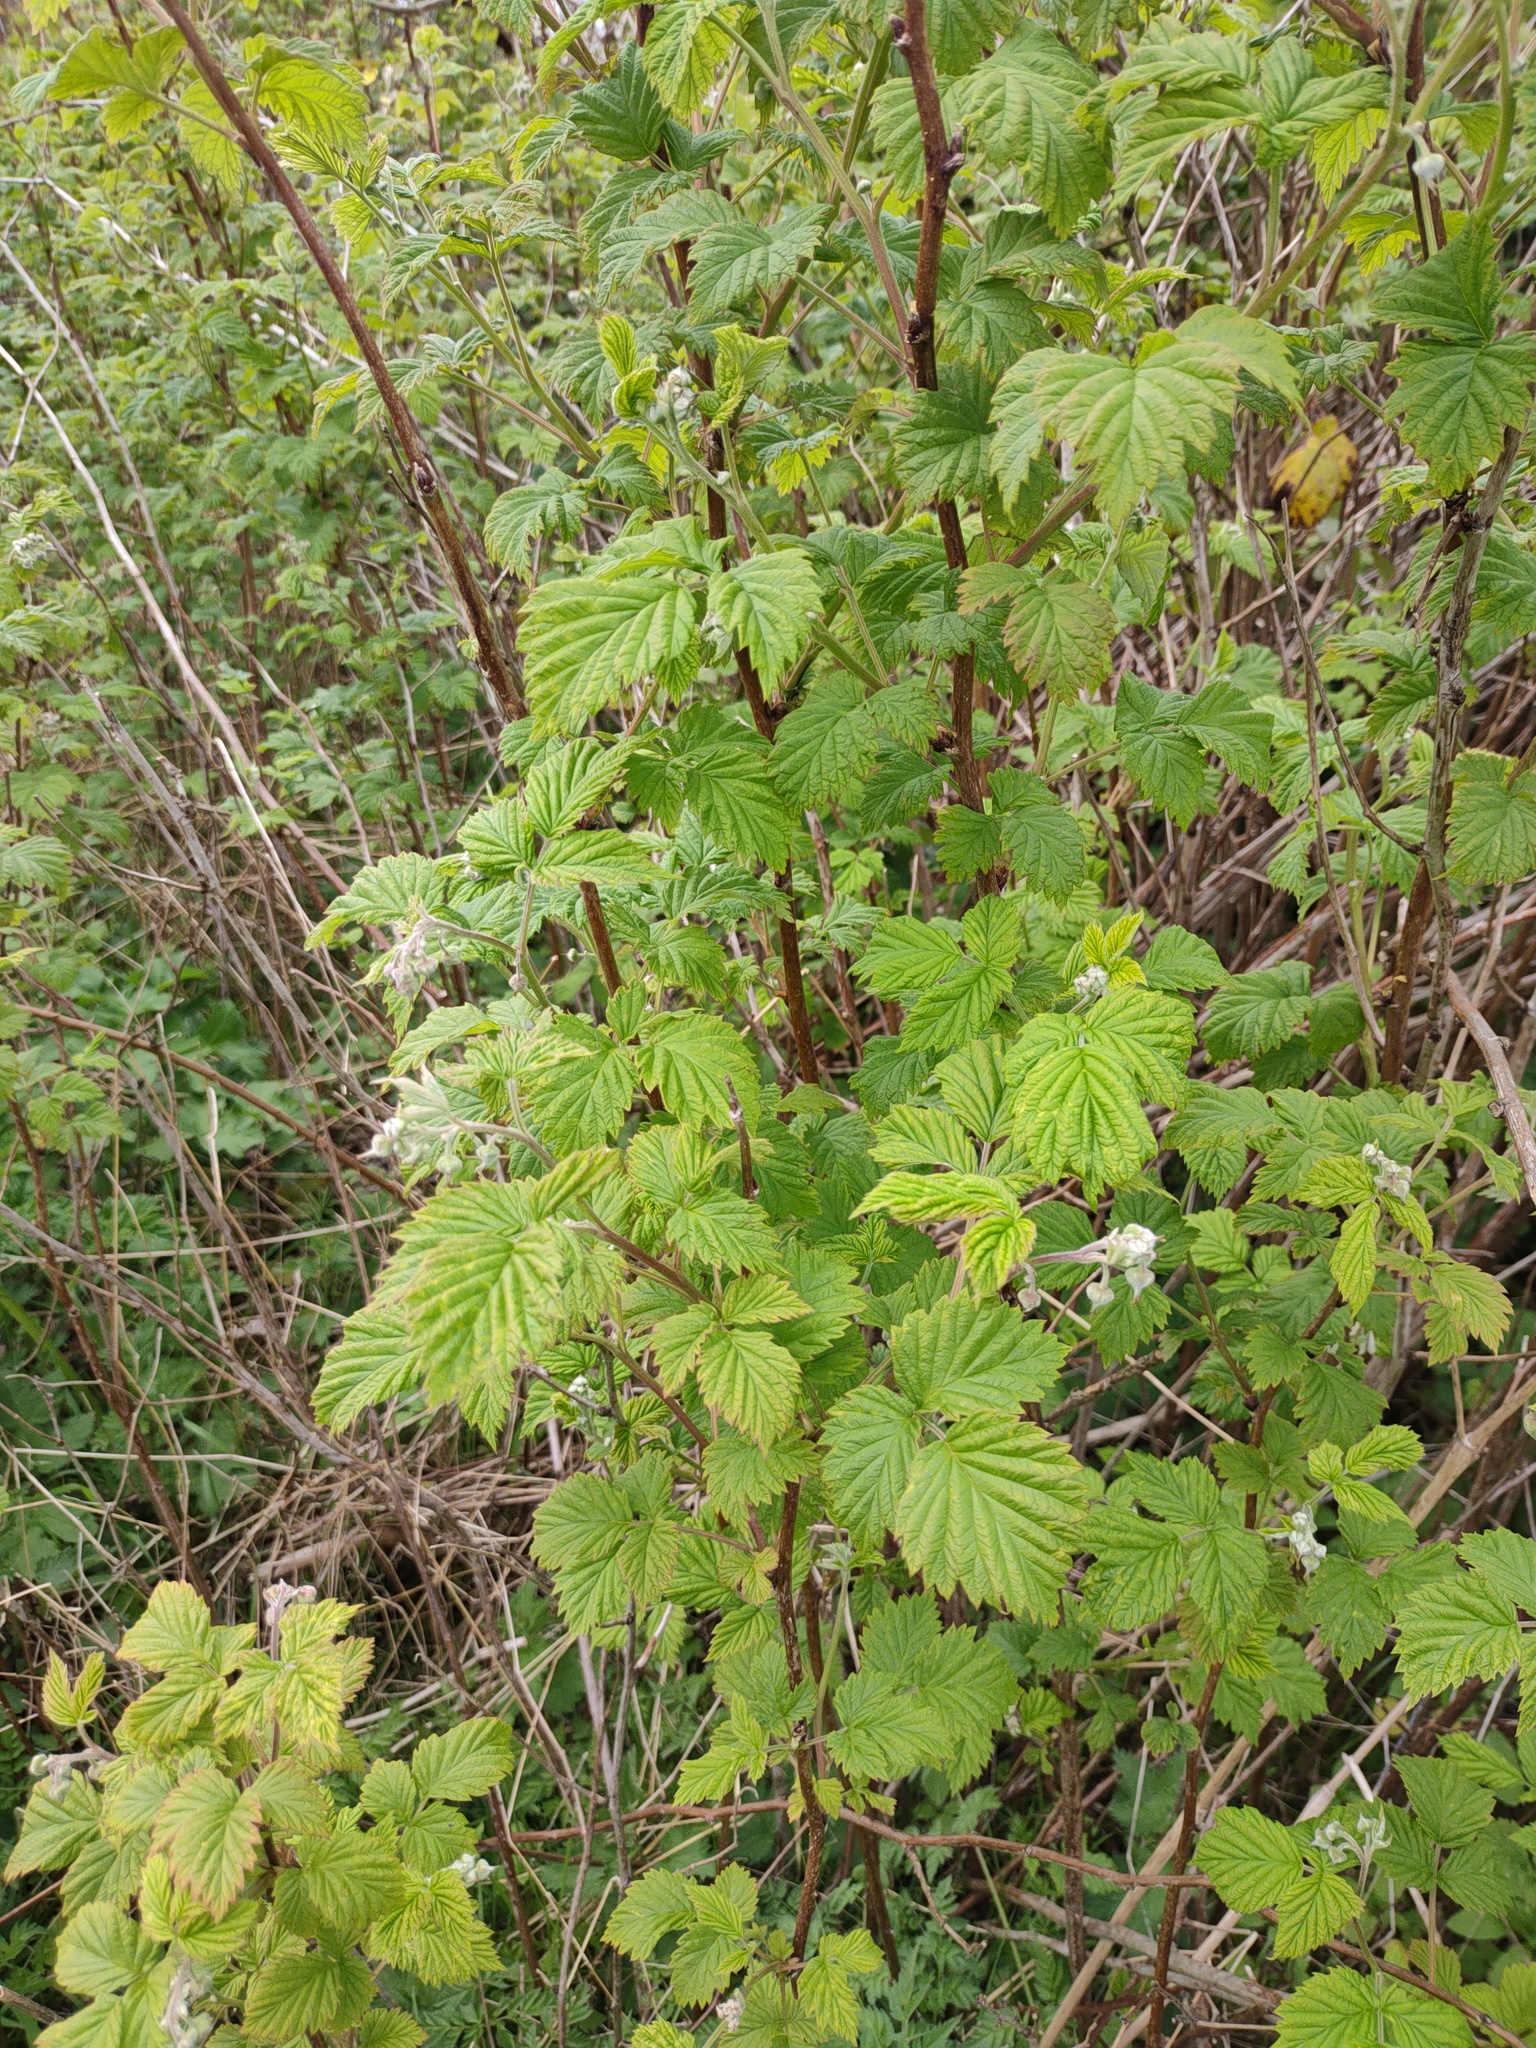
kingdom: Plantae
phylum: Tracheophyta
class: Magnoliopsida
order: Rosales
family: Rosaceae
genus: Rubus
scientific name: Rubus idaeus
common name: Raspberry
